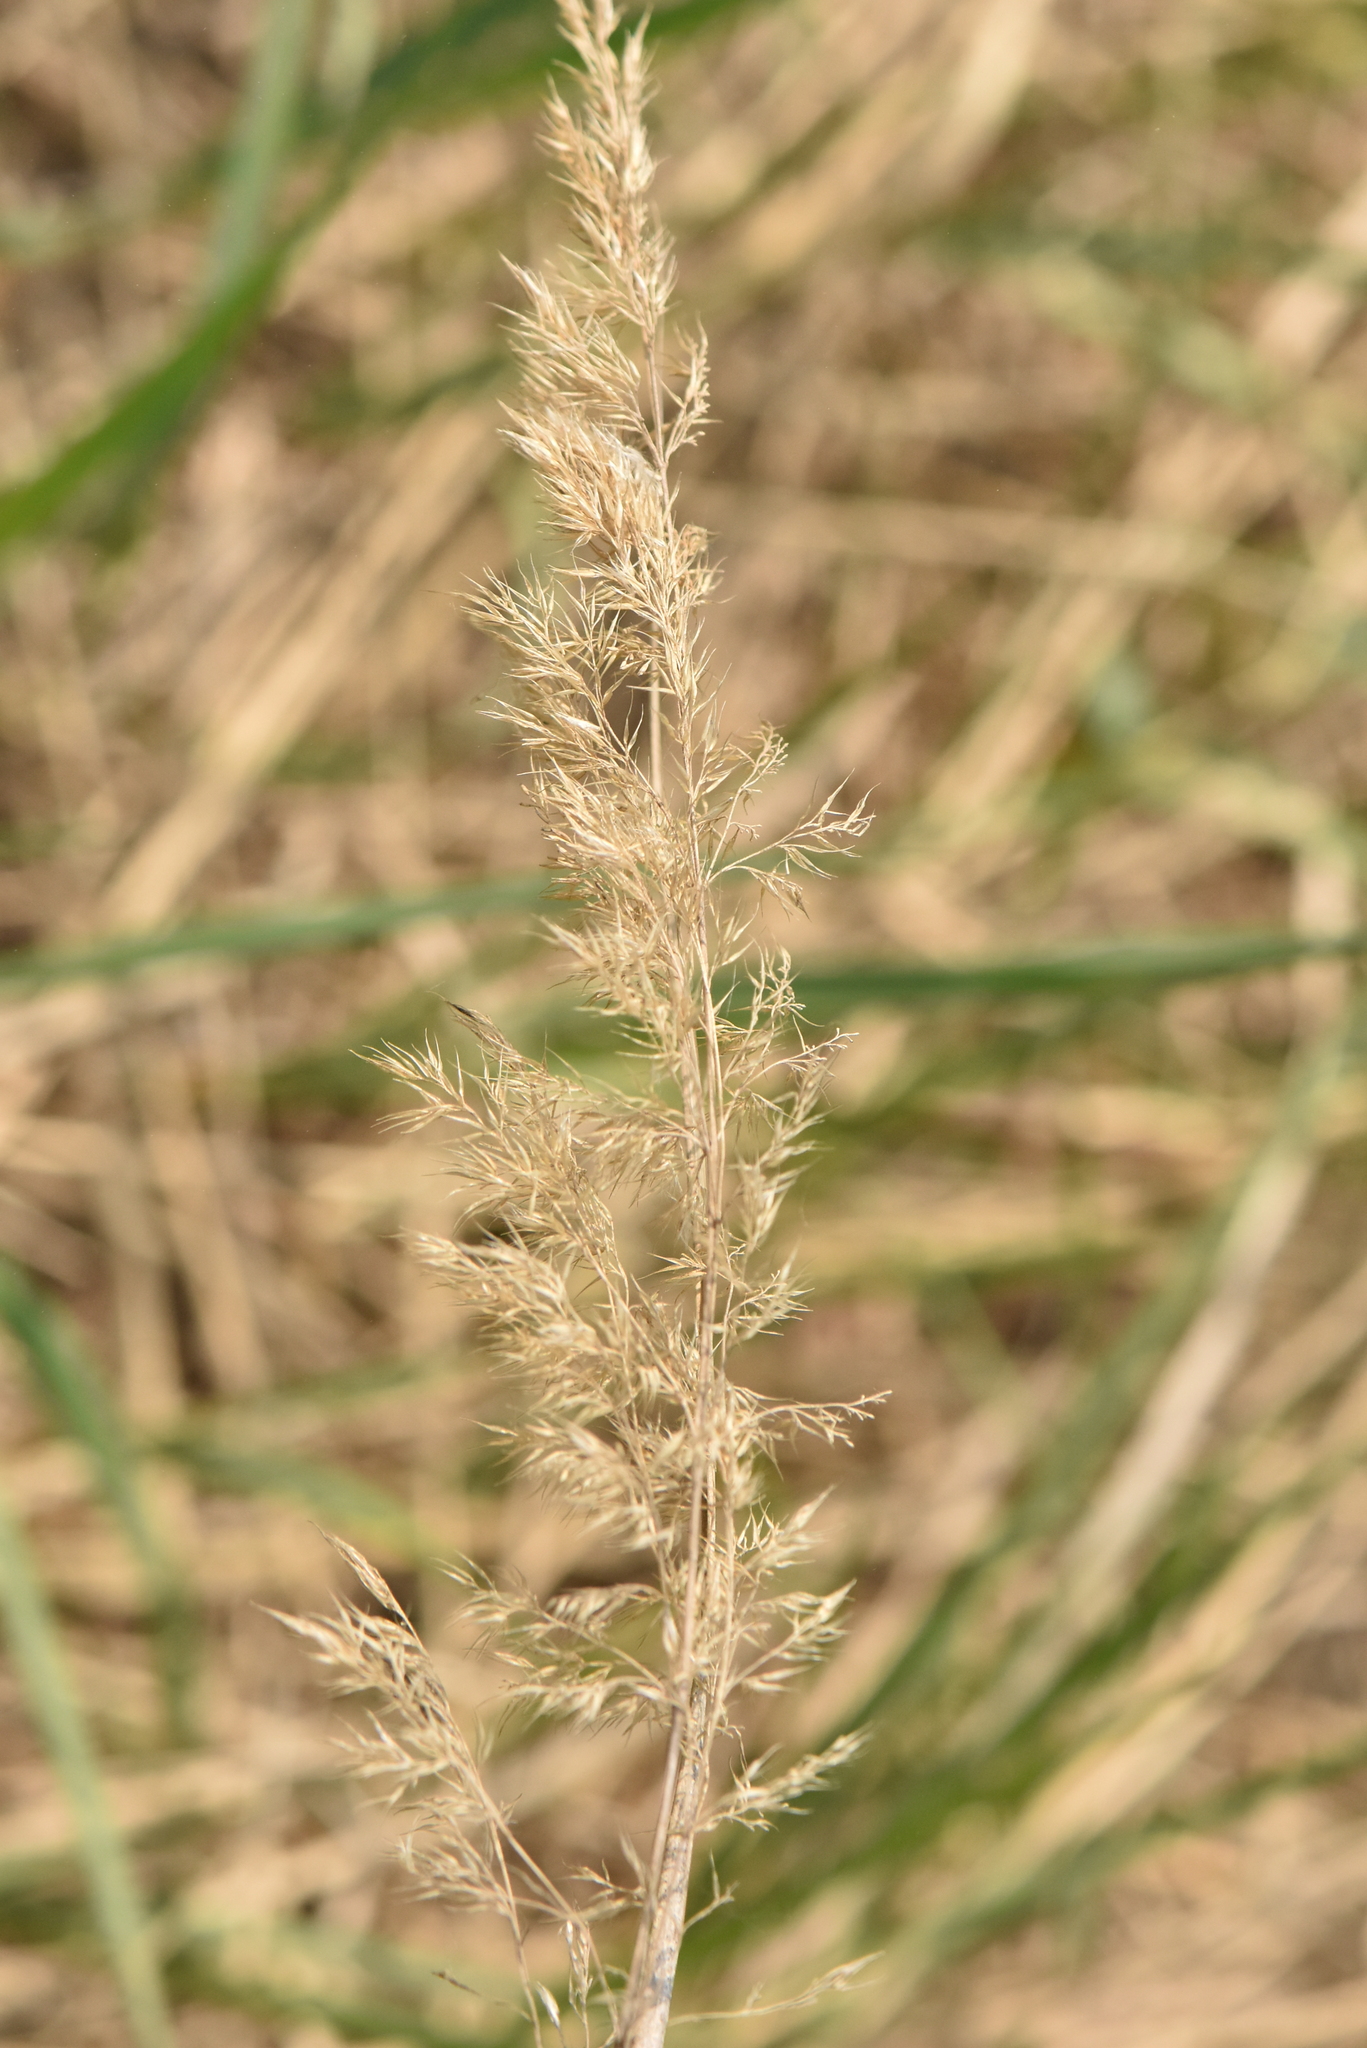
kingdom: Plantae
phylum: Tracheophyta
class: Liliopsida
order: Poales
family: Poaceae
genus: Calamagrostis
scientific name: Calamagrostis epigejos
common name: Wood small-reed
